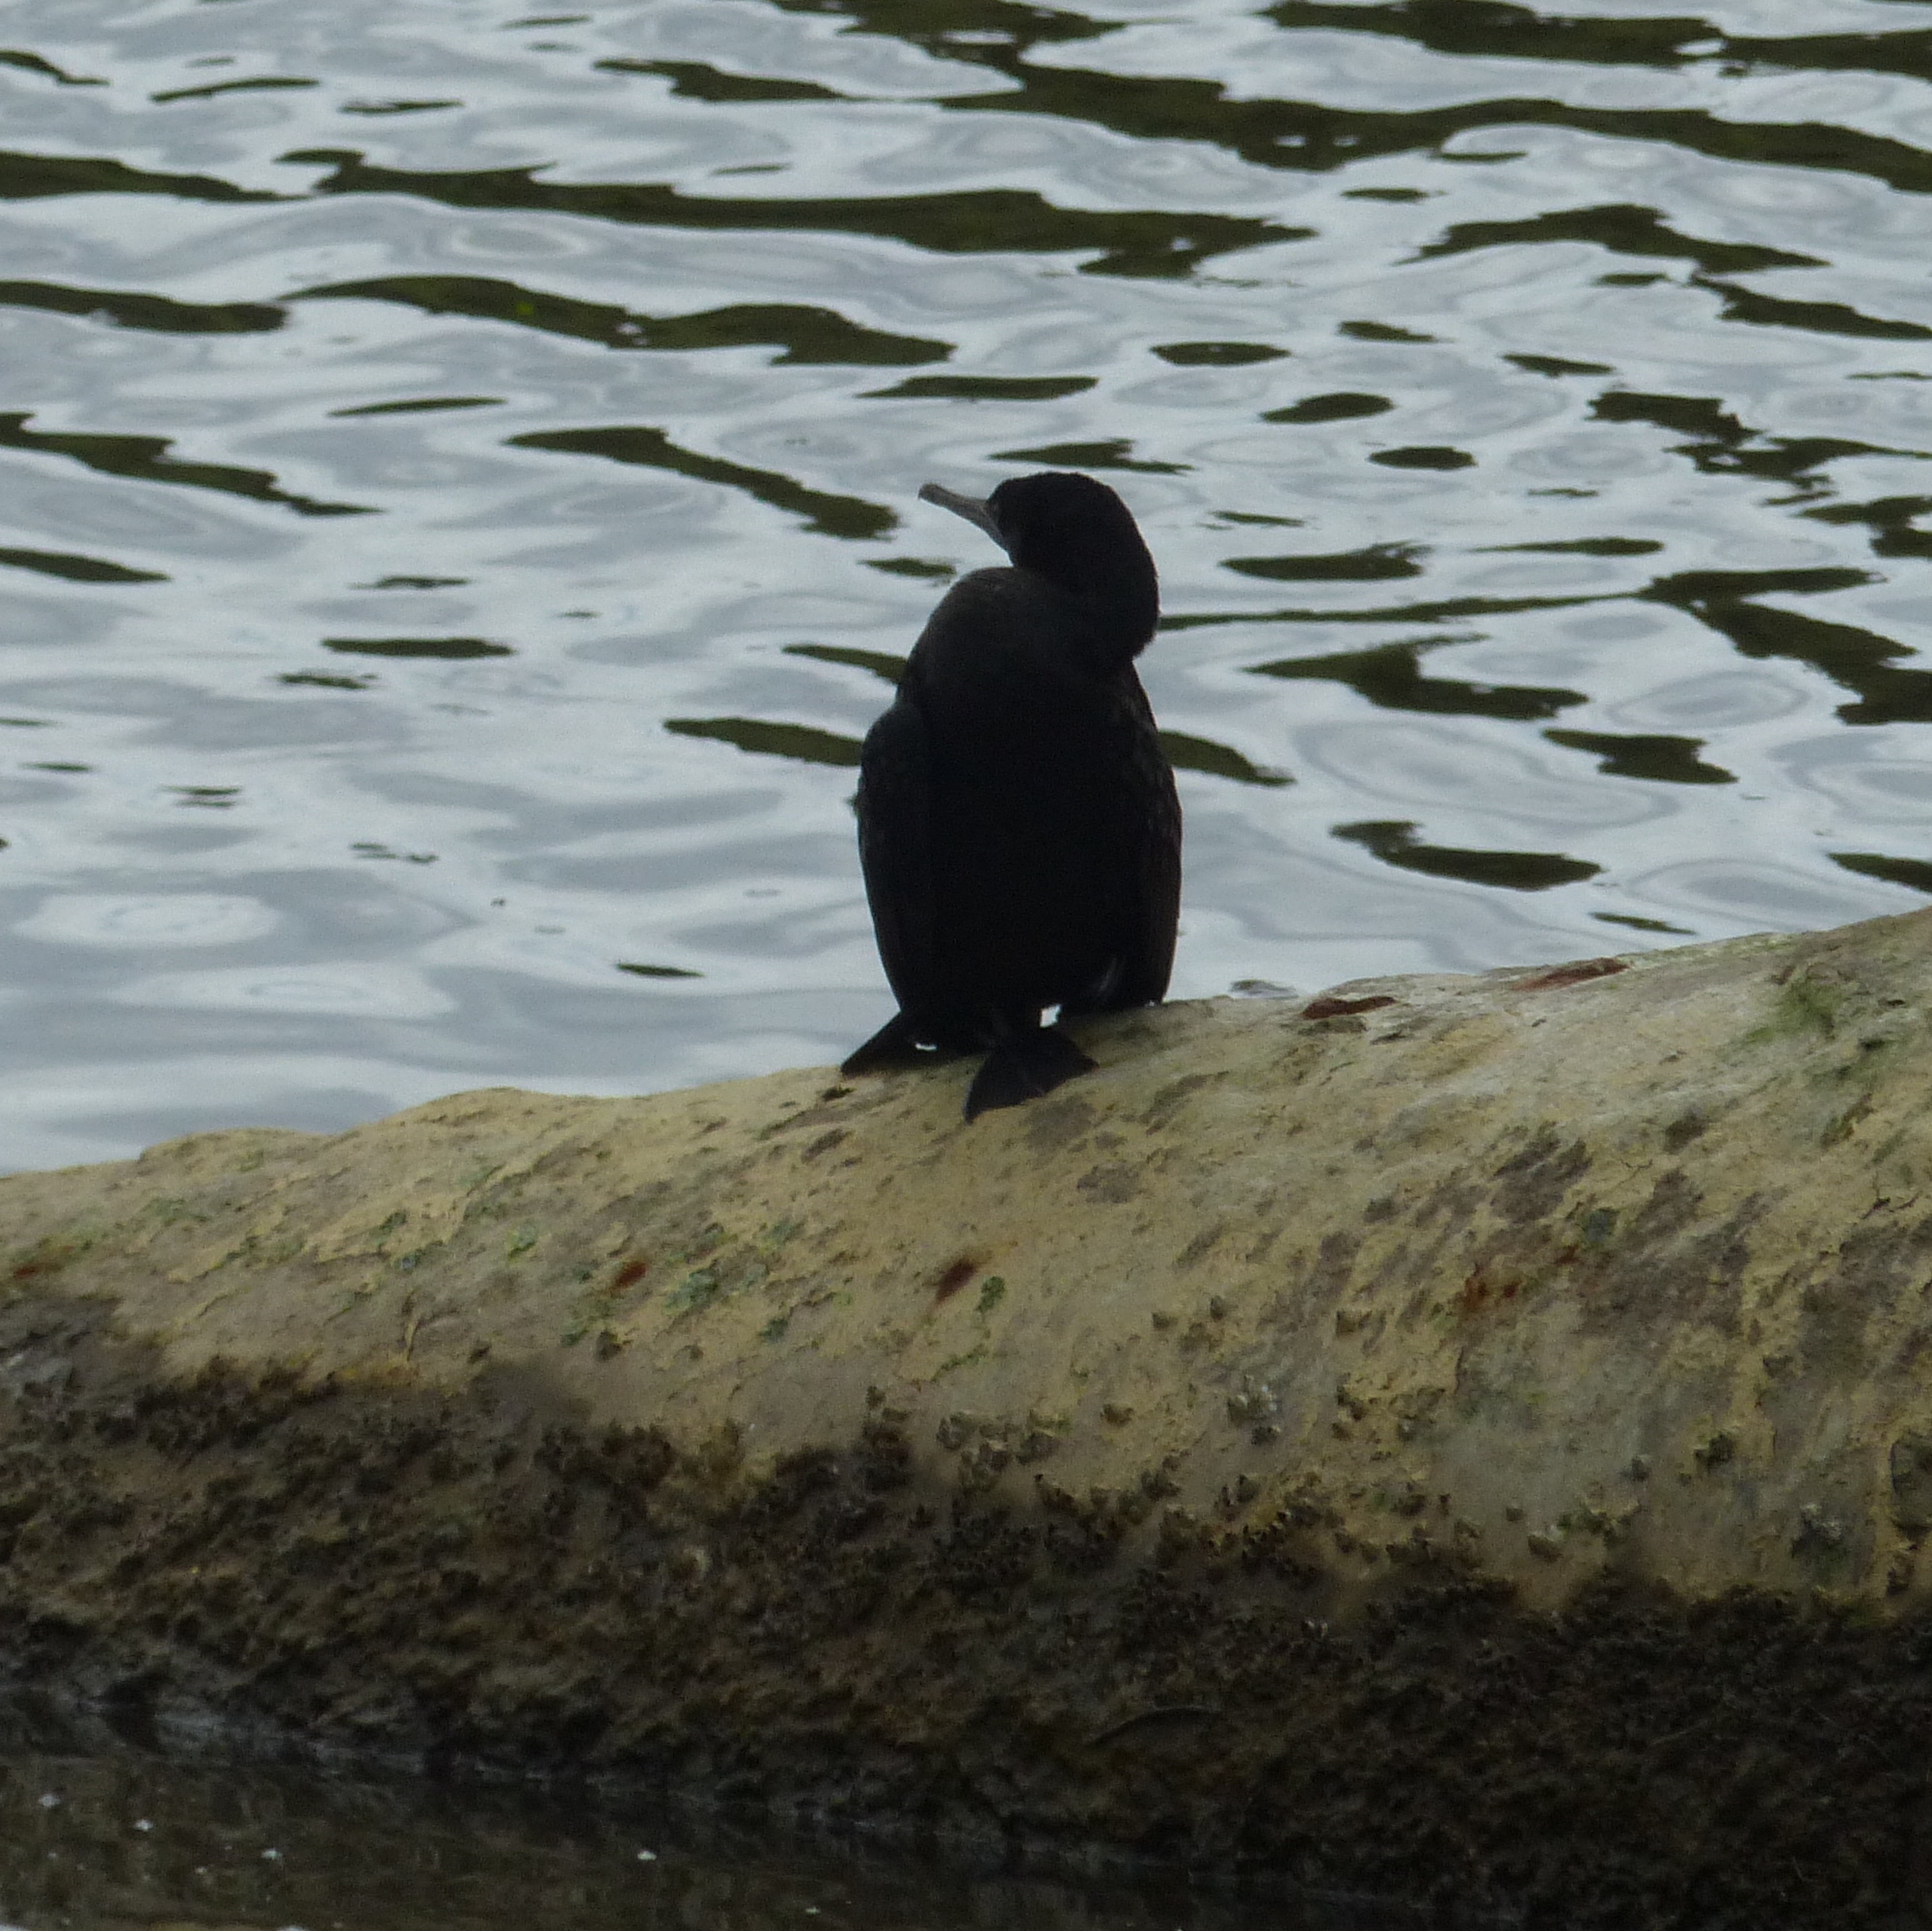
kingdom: Animalia
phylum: Chordata
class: Aves
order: Suliformes
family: Phalacrocoracidae
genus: Phalacrocorax
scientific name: Phalacrocorax sulcirostris
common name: Little black cormorant
